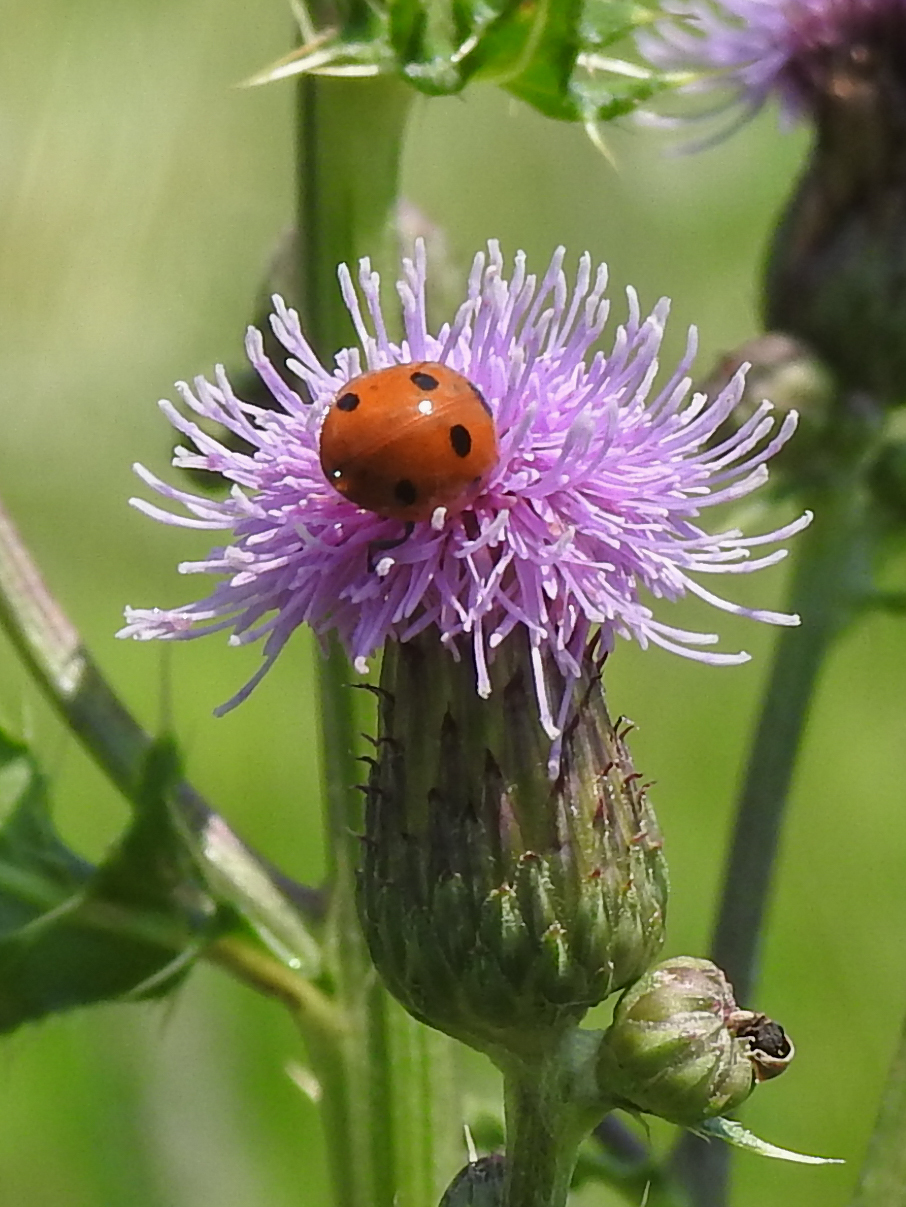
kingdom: Animalia
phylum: Arthropoda
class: Insecta
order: Coleoptera
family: Coccinellidae
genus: Coccinella
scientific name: Coccinella septempunctata
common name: Sevenspotted lady beetle
